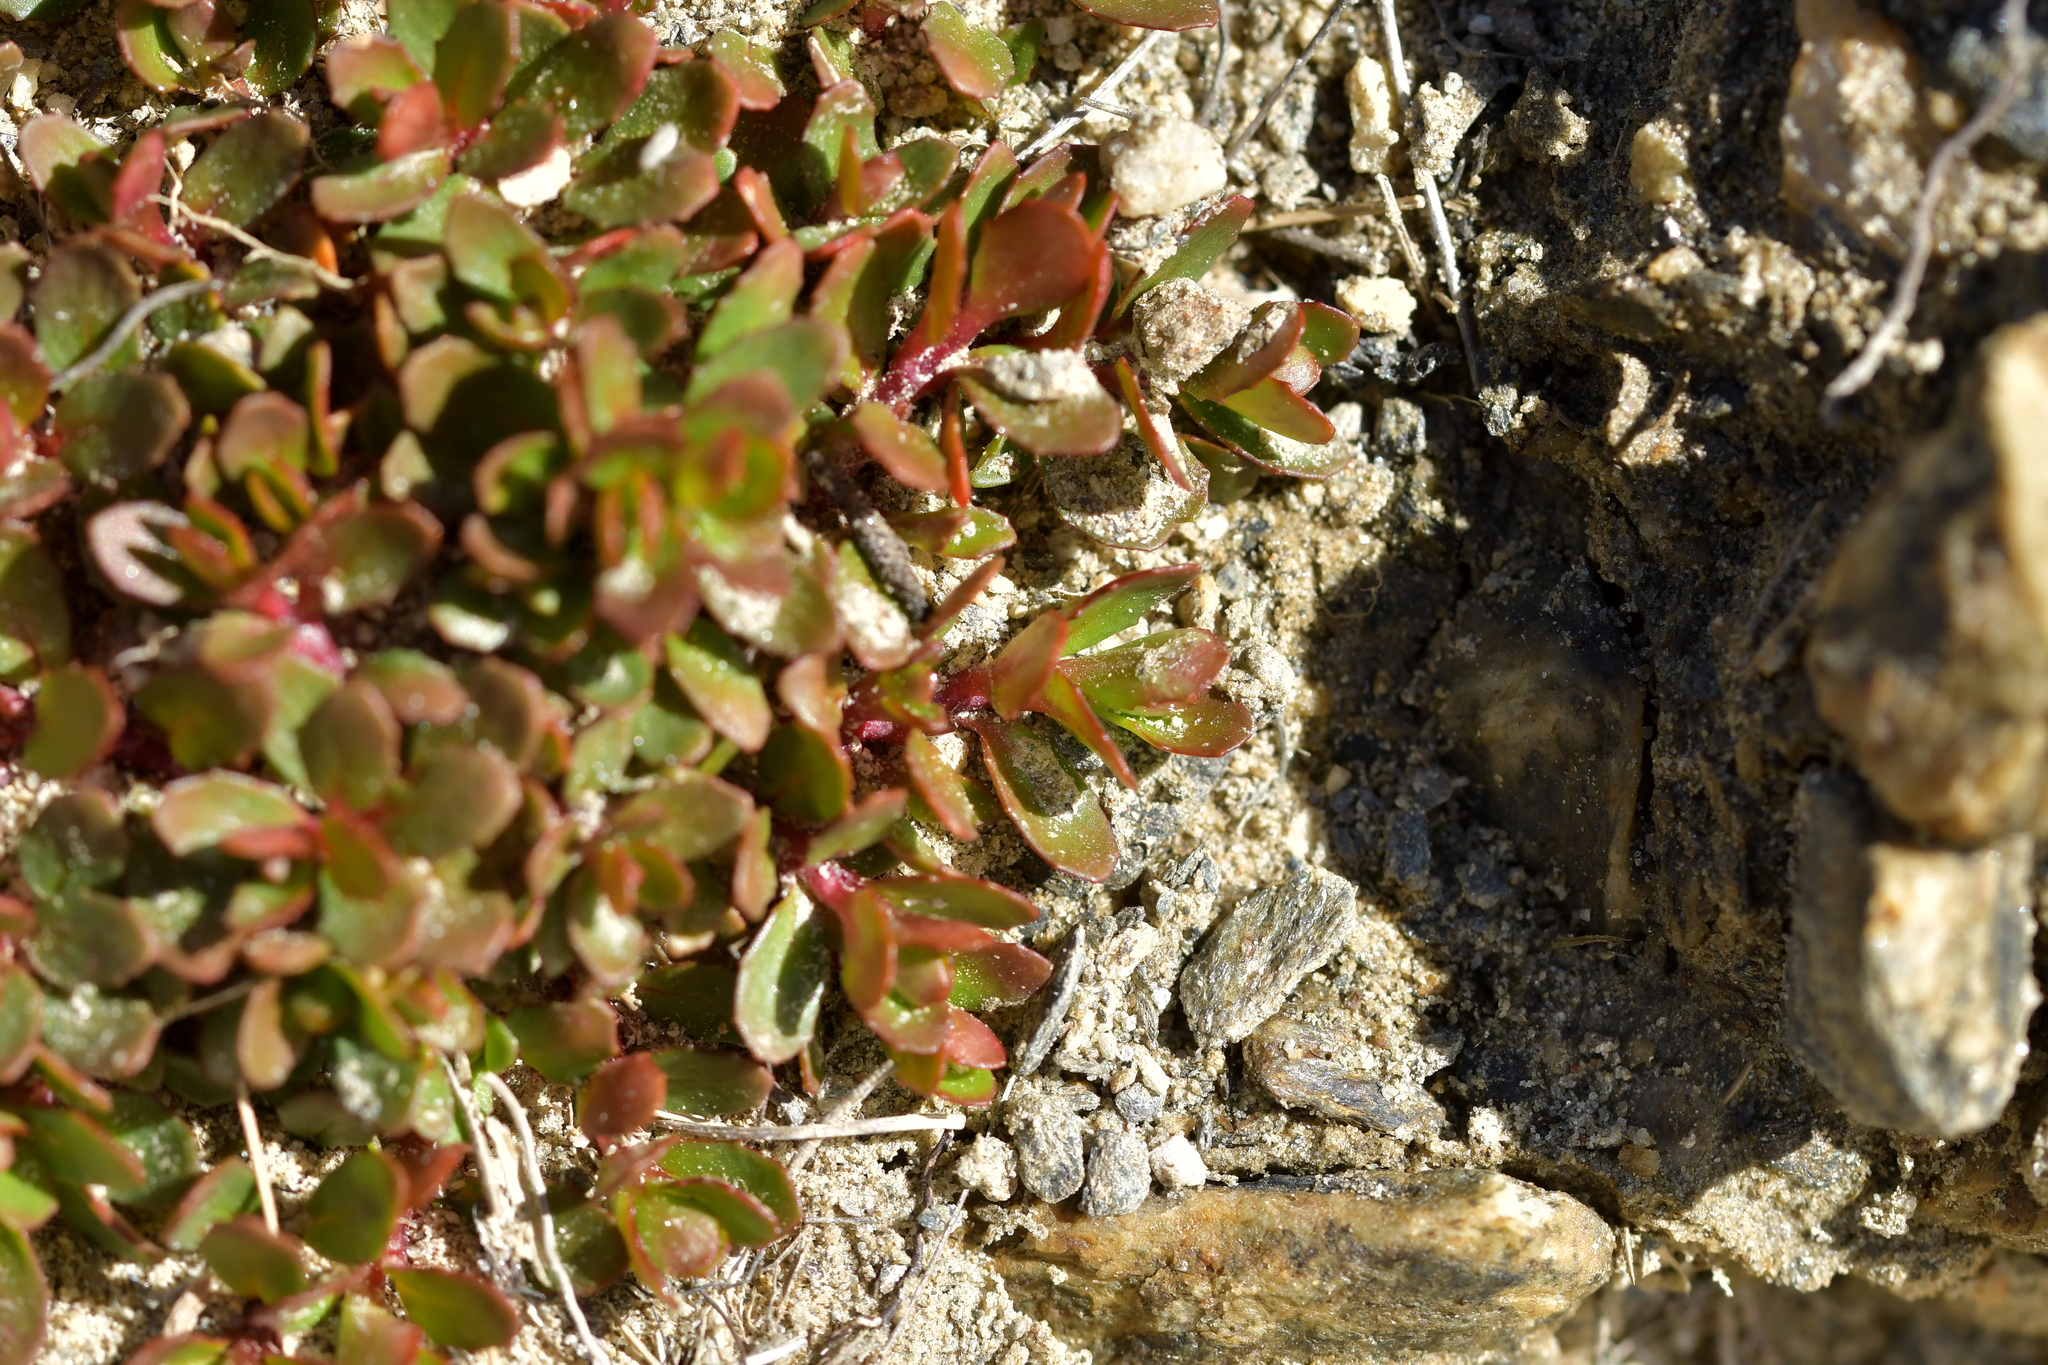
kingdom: Plantae
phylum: Tracheophyta
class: Magnoliopsida
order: Myrtales
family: Onagraceae
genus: Epilobium
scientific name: Epilobium tasmanicum
